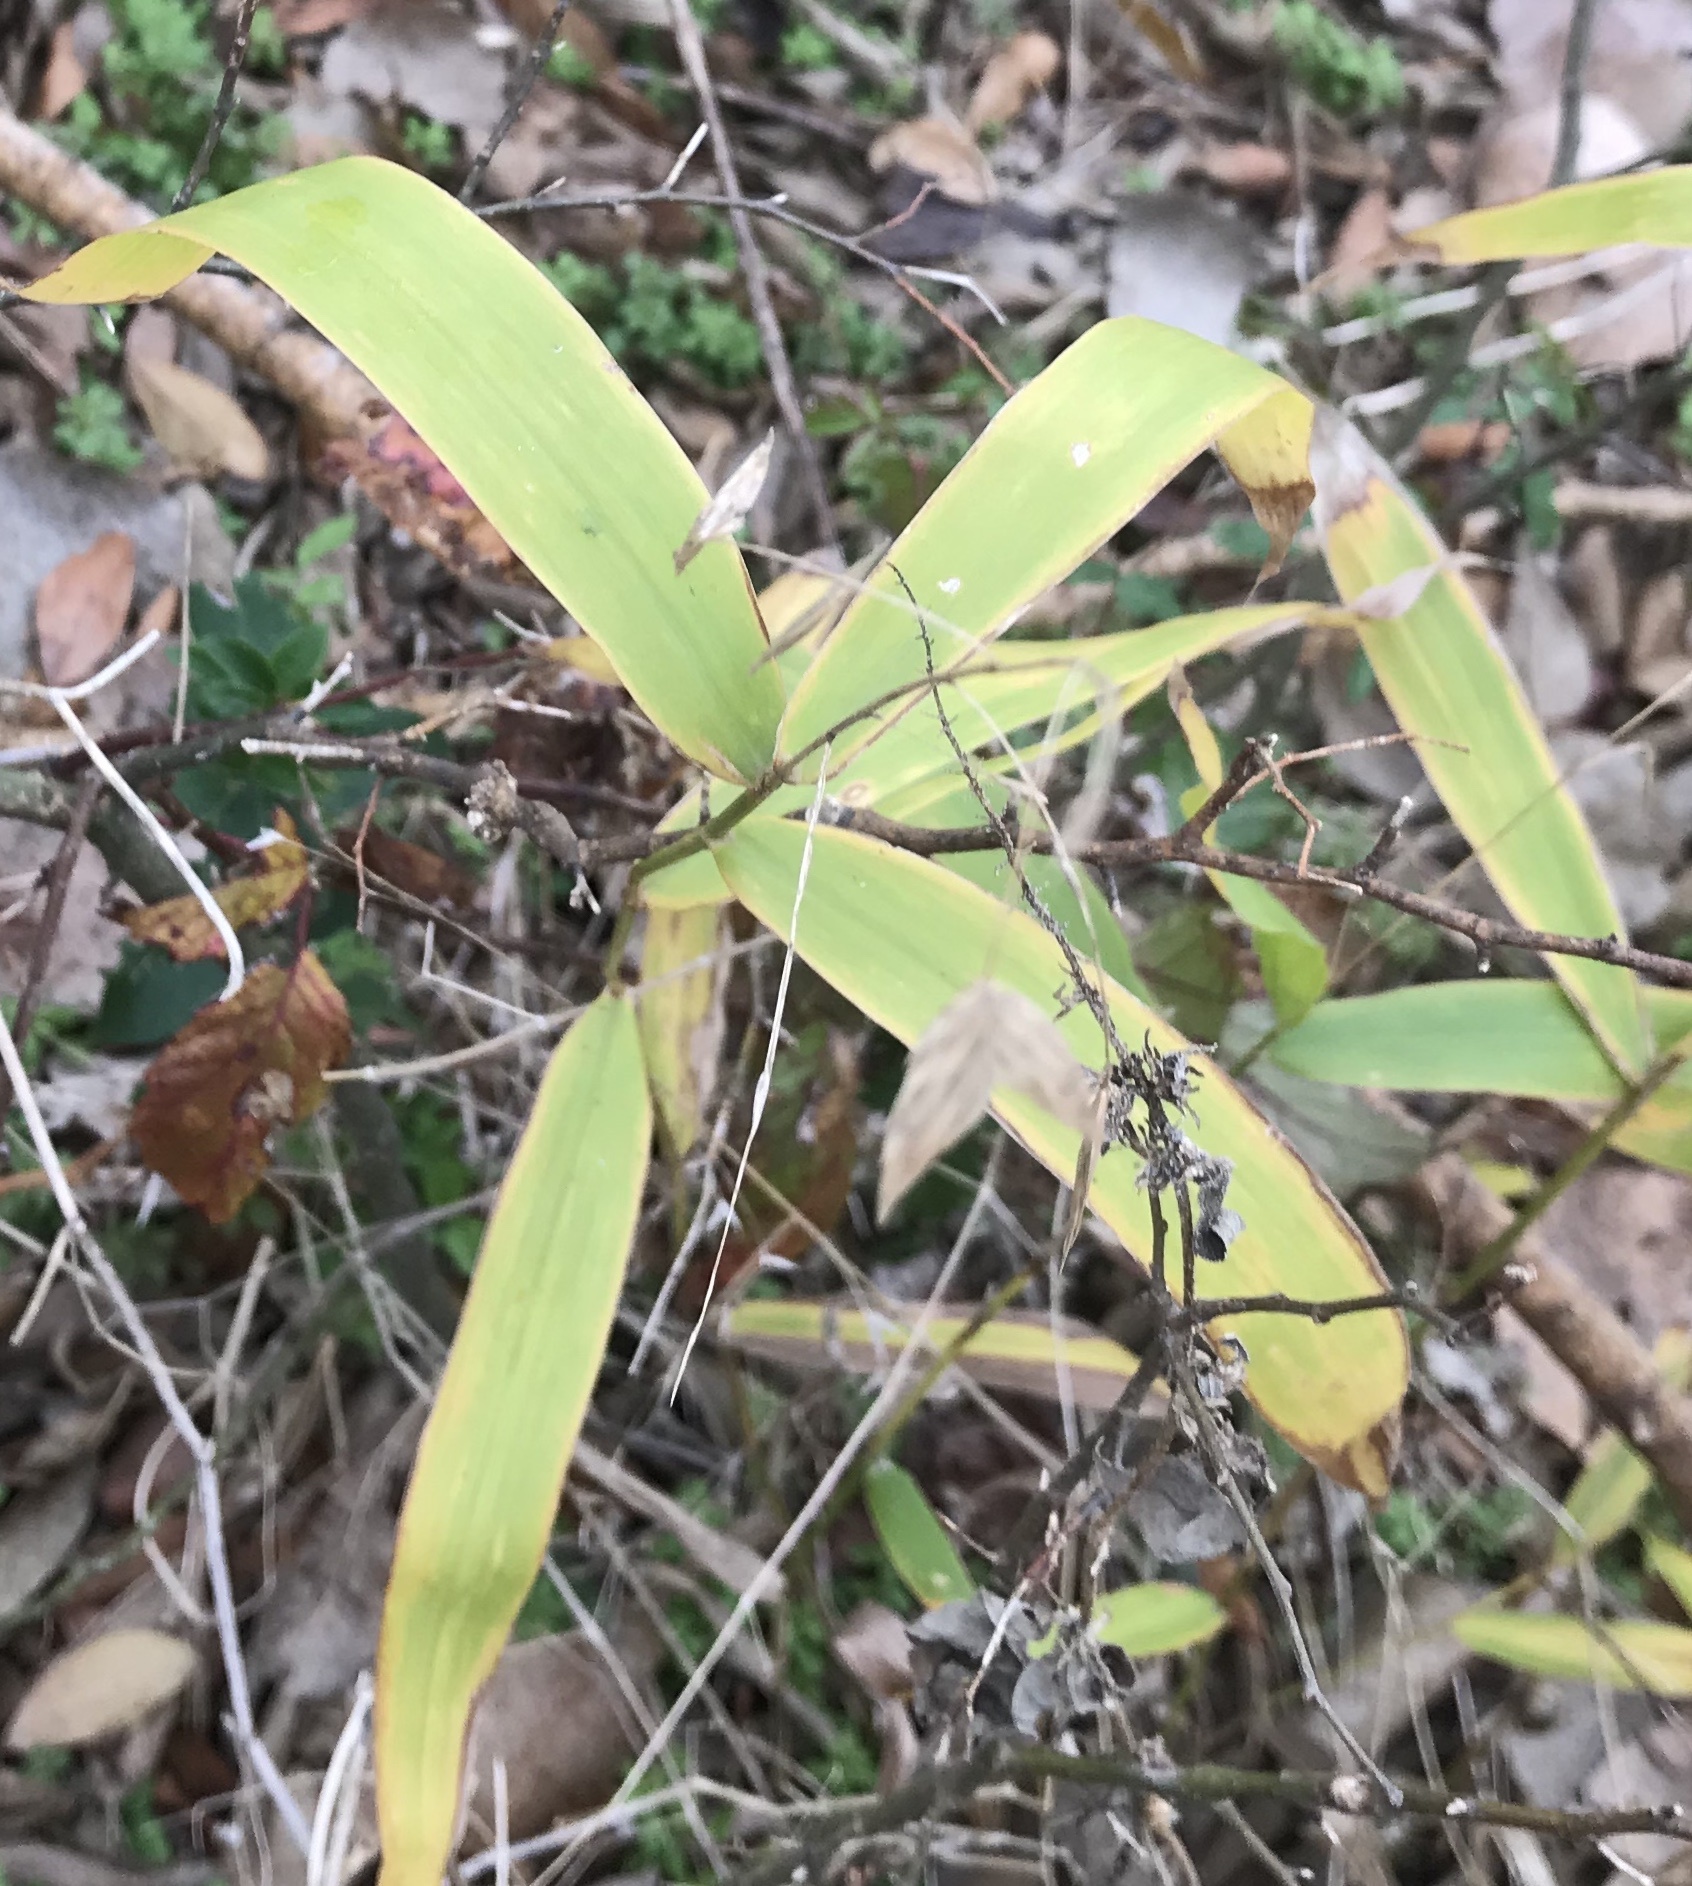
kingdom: Plantae
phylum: Tracheophyta
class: Liliopsida
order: Poales
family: Poaceae
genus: Chasmanthium
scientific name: Chasmanthium latifolium
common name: Broad-leaved chasmanthium
